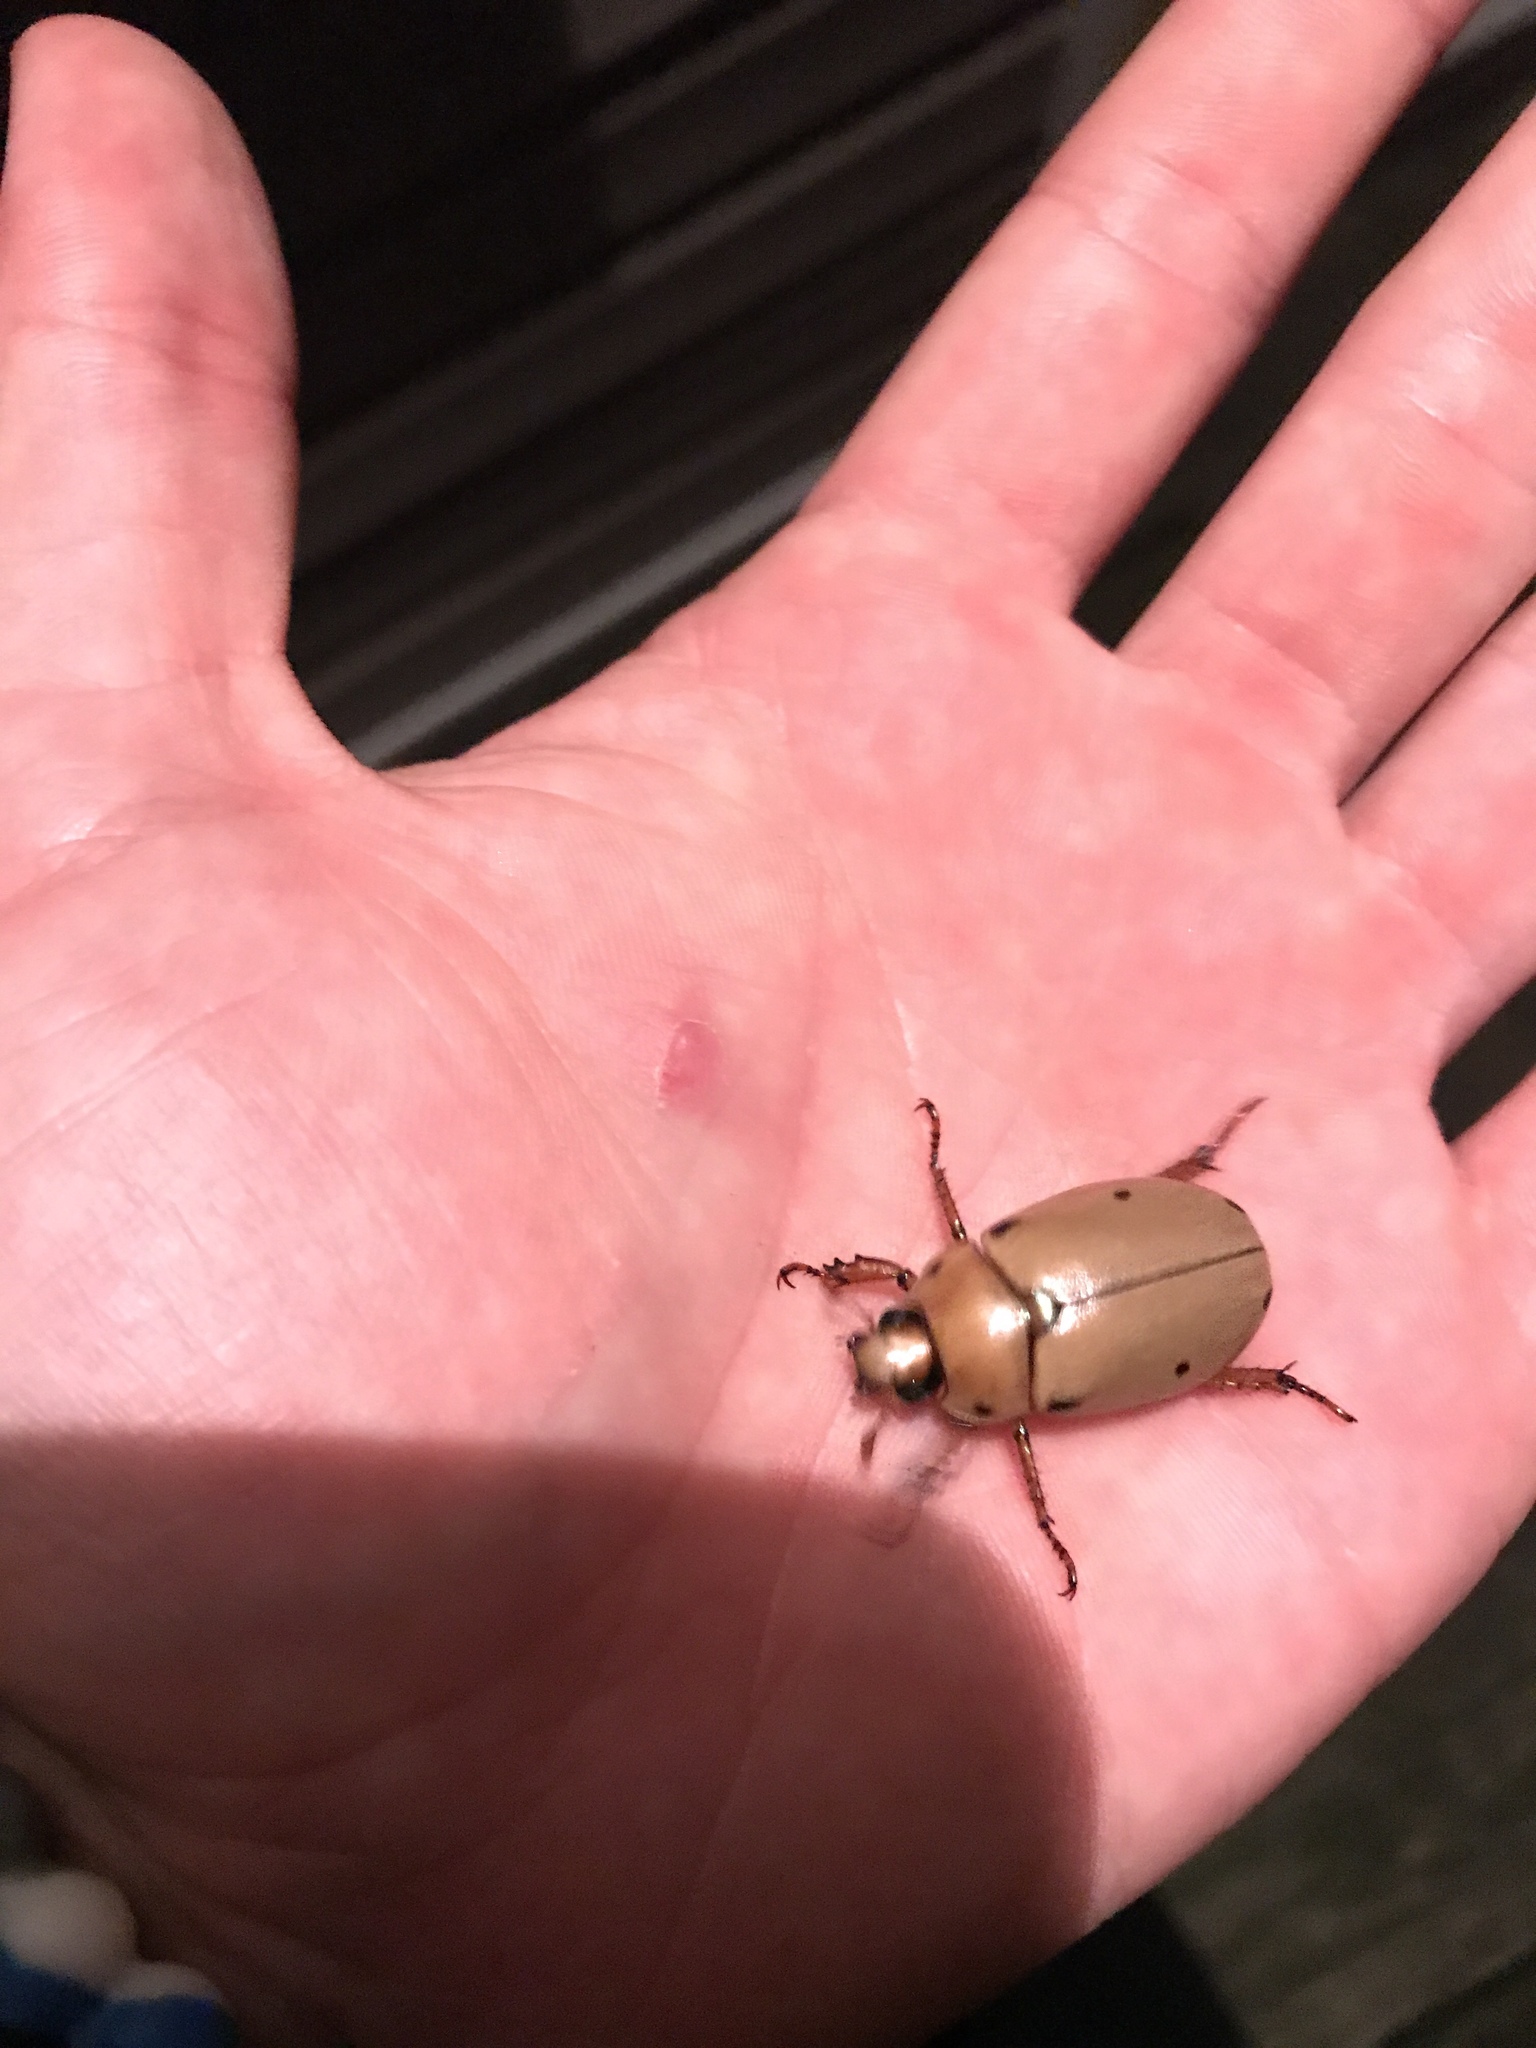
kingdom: Animalia
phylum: Arthropoda
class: Insecta
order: Coleoptera
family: Scarabaeidae
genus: Pelidnota
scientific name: Pelidnota punctata
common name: Grapevine beetle
